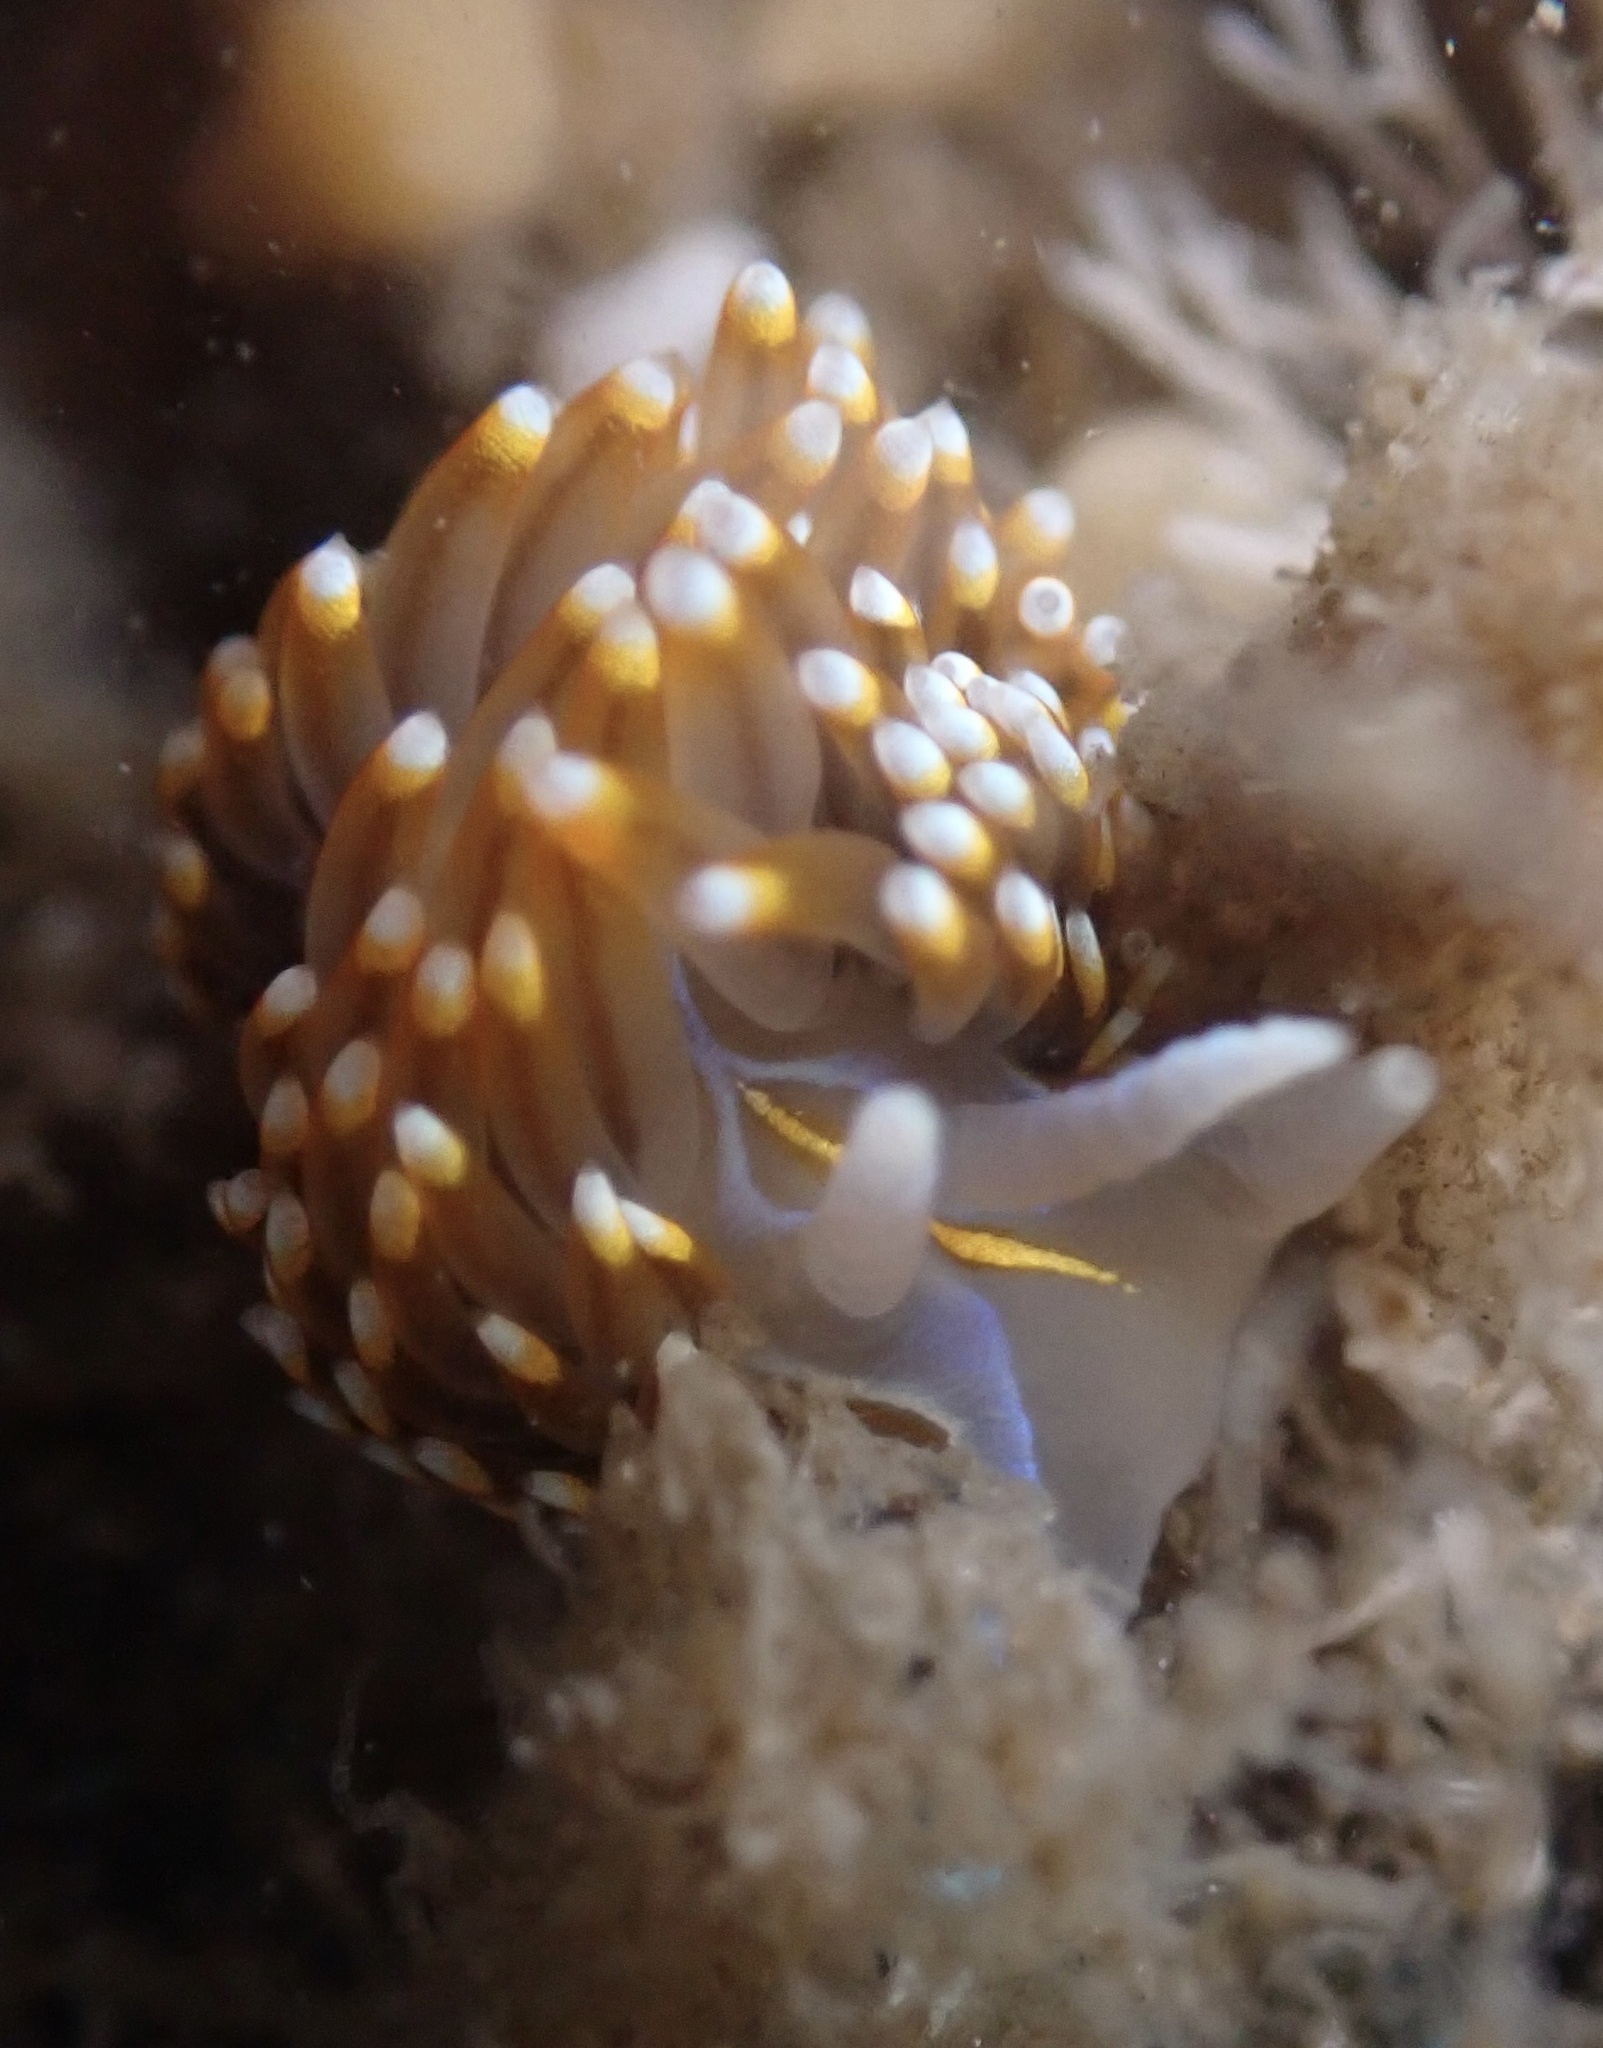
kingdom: Animalia
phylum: Mollusca
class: Gastropoda
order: Nudibranchia
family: Myrrhinidae
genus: Hermissenda
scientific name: Hermissenda opalescens
